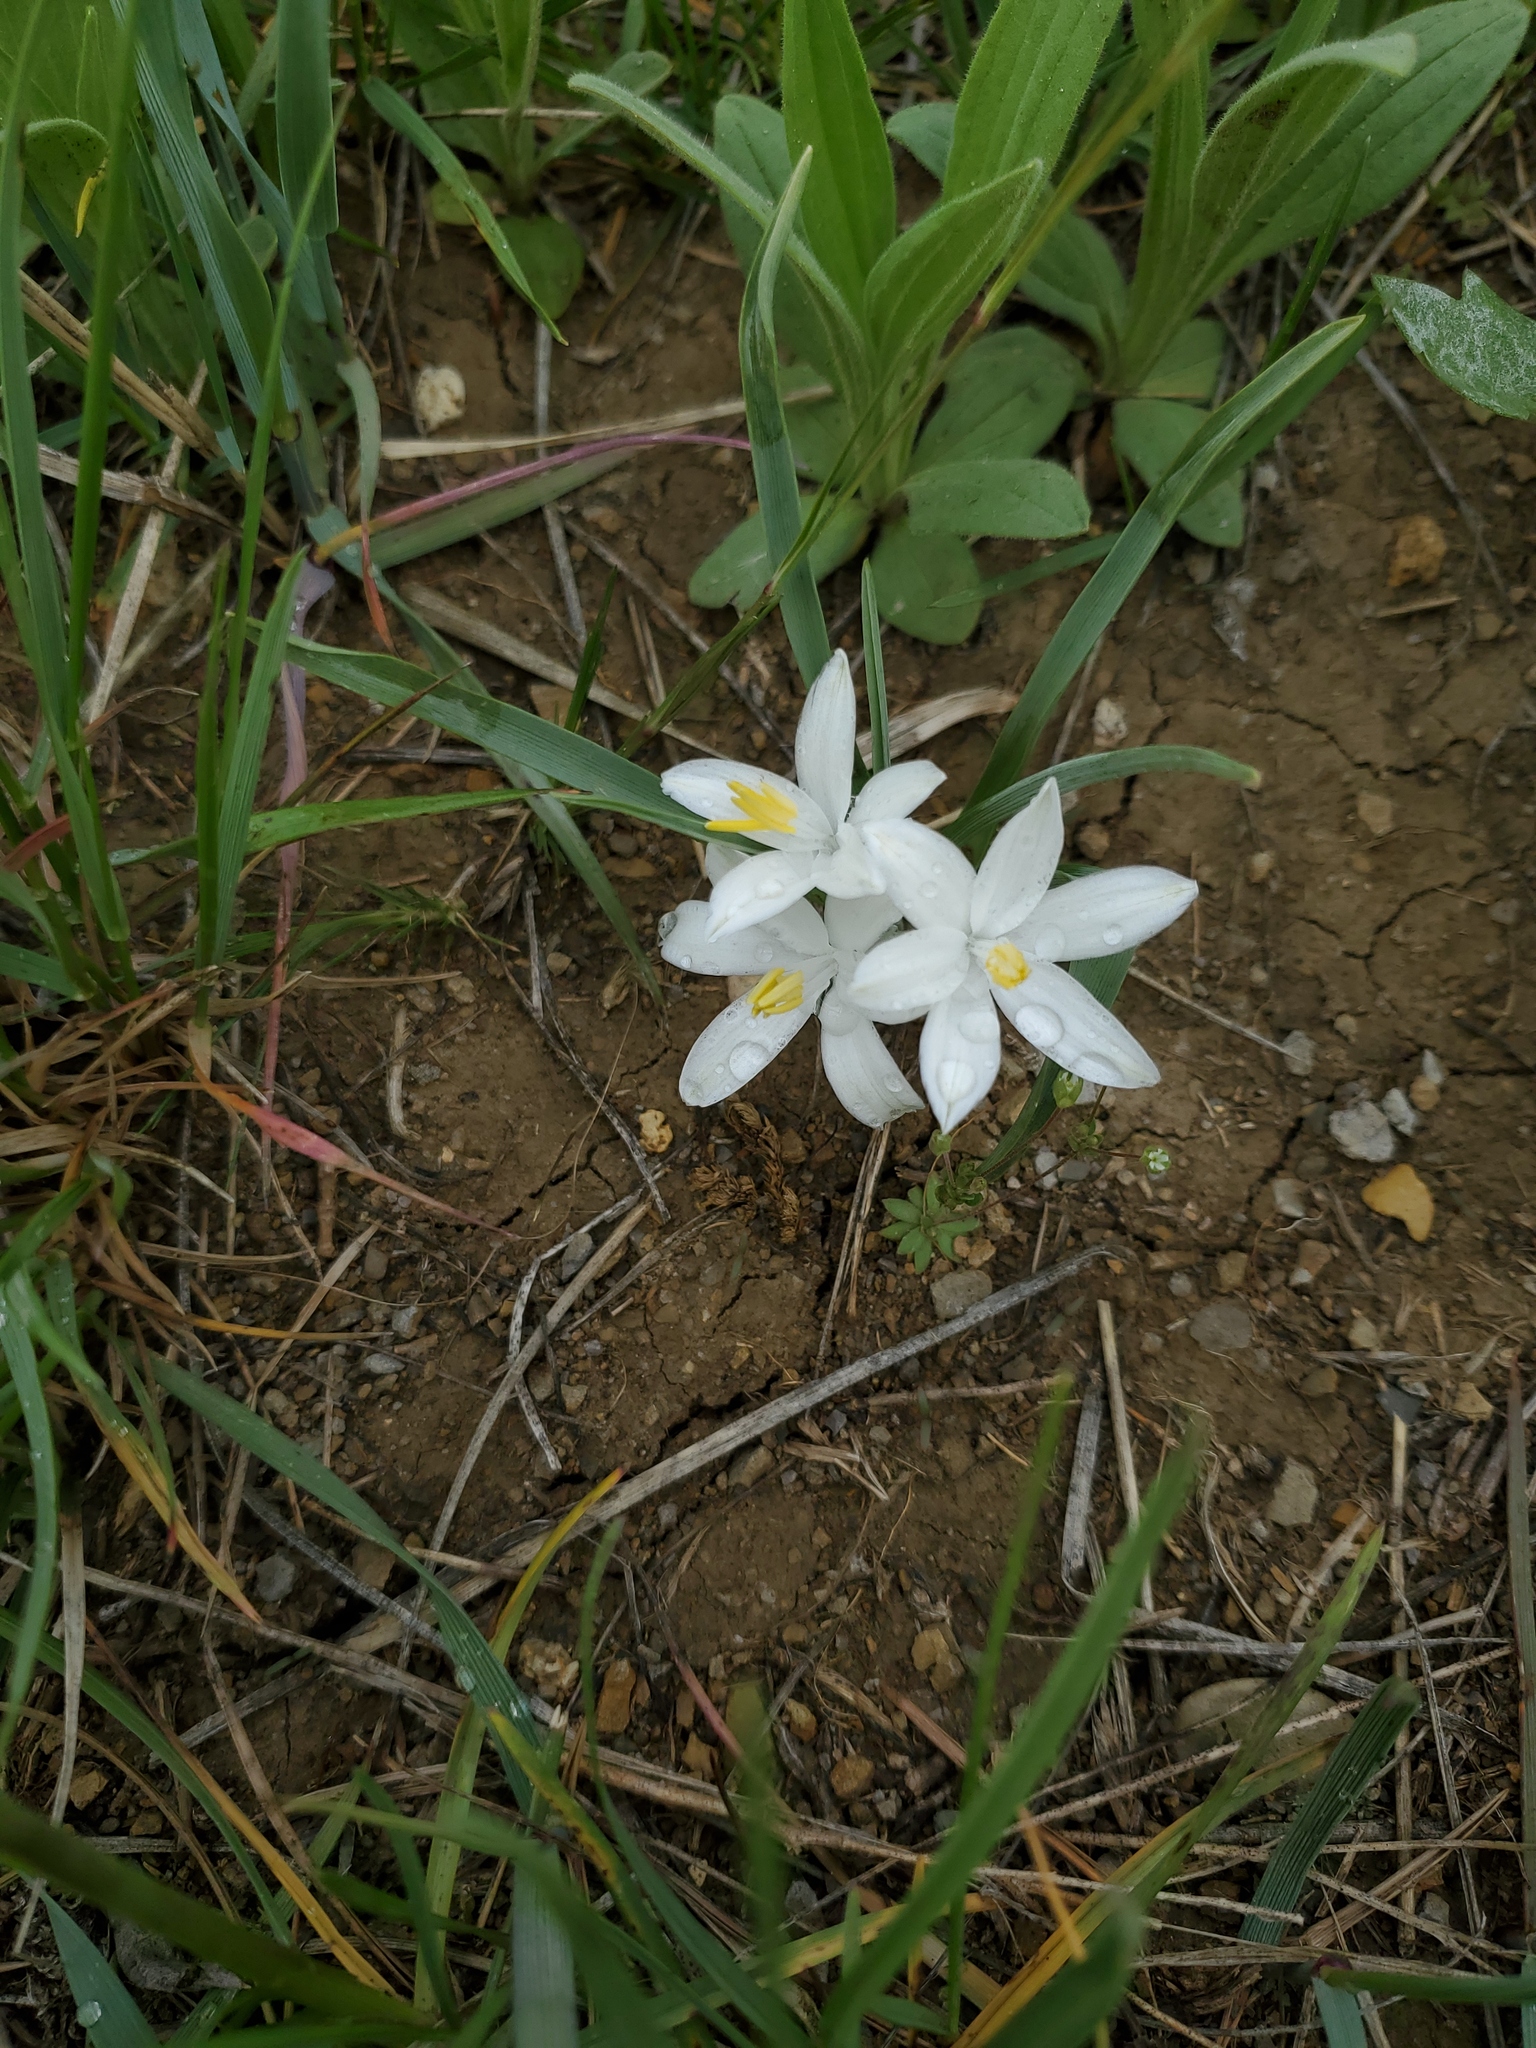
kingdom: Plantae
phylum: Tracheophyta
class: Liliopsida
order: Asparagales
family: Asparagaceae
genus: Leucocrinum
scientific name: Leucocrinum montanum
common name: Mountain-lily
